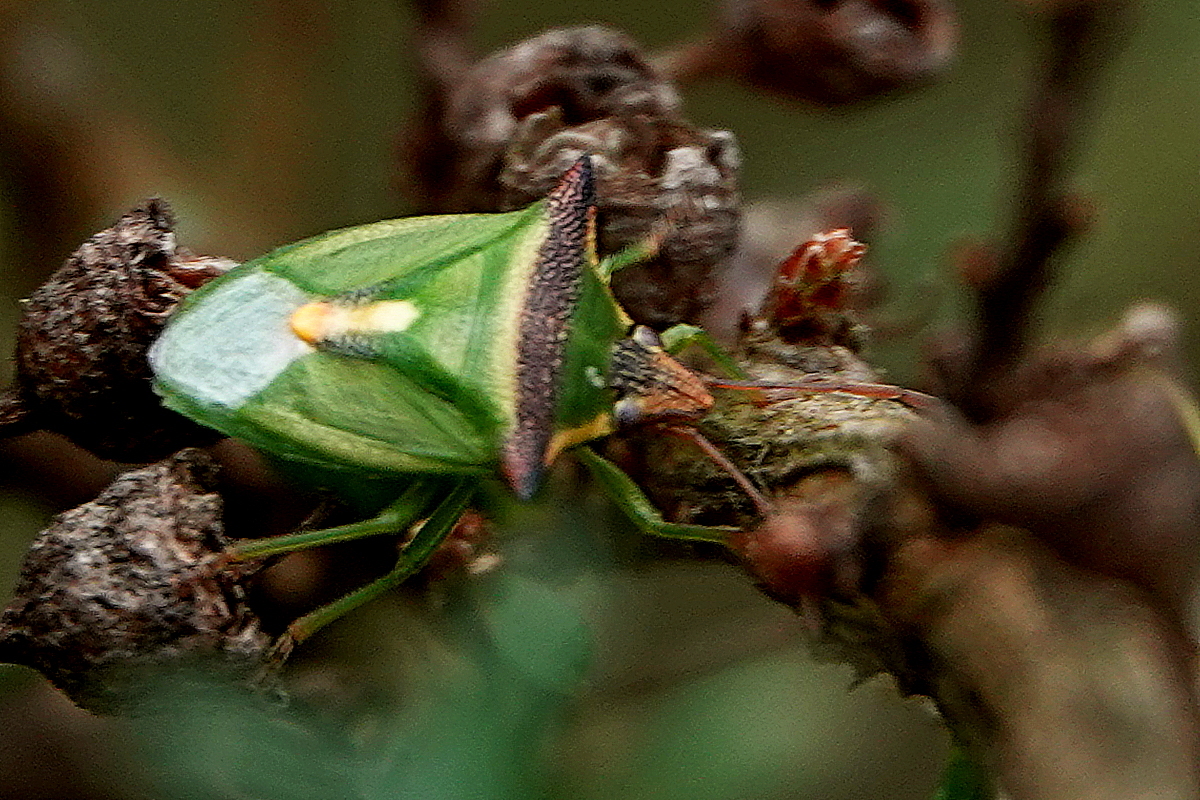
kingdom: Animalia
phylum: Arthropoda
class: Insecta
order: Hemiptera
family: Pentatomidae
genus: Cuspicona
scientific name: Cuspicona
